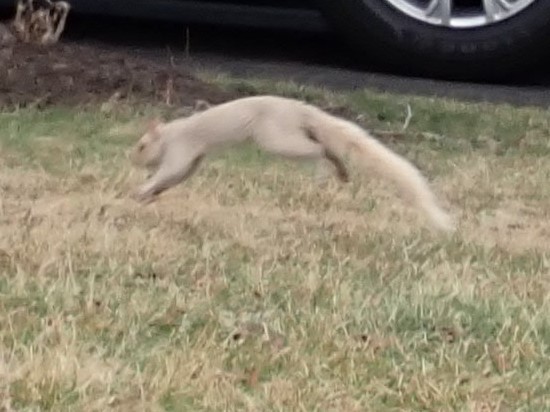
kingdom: Animalia
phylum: Chordata
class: Mammalia
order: Rodentia
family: Sciuridae
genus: Sciurus
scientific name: Sciurus carolinensis
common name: Eastern gray squirrel
